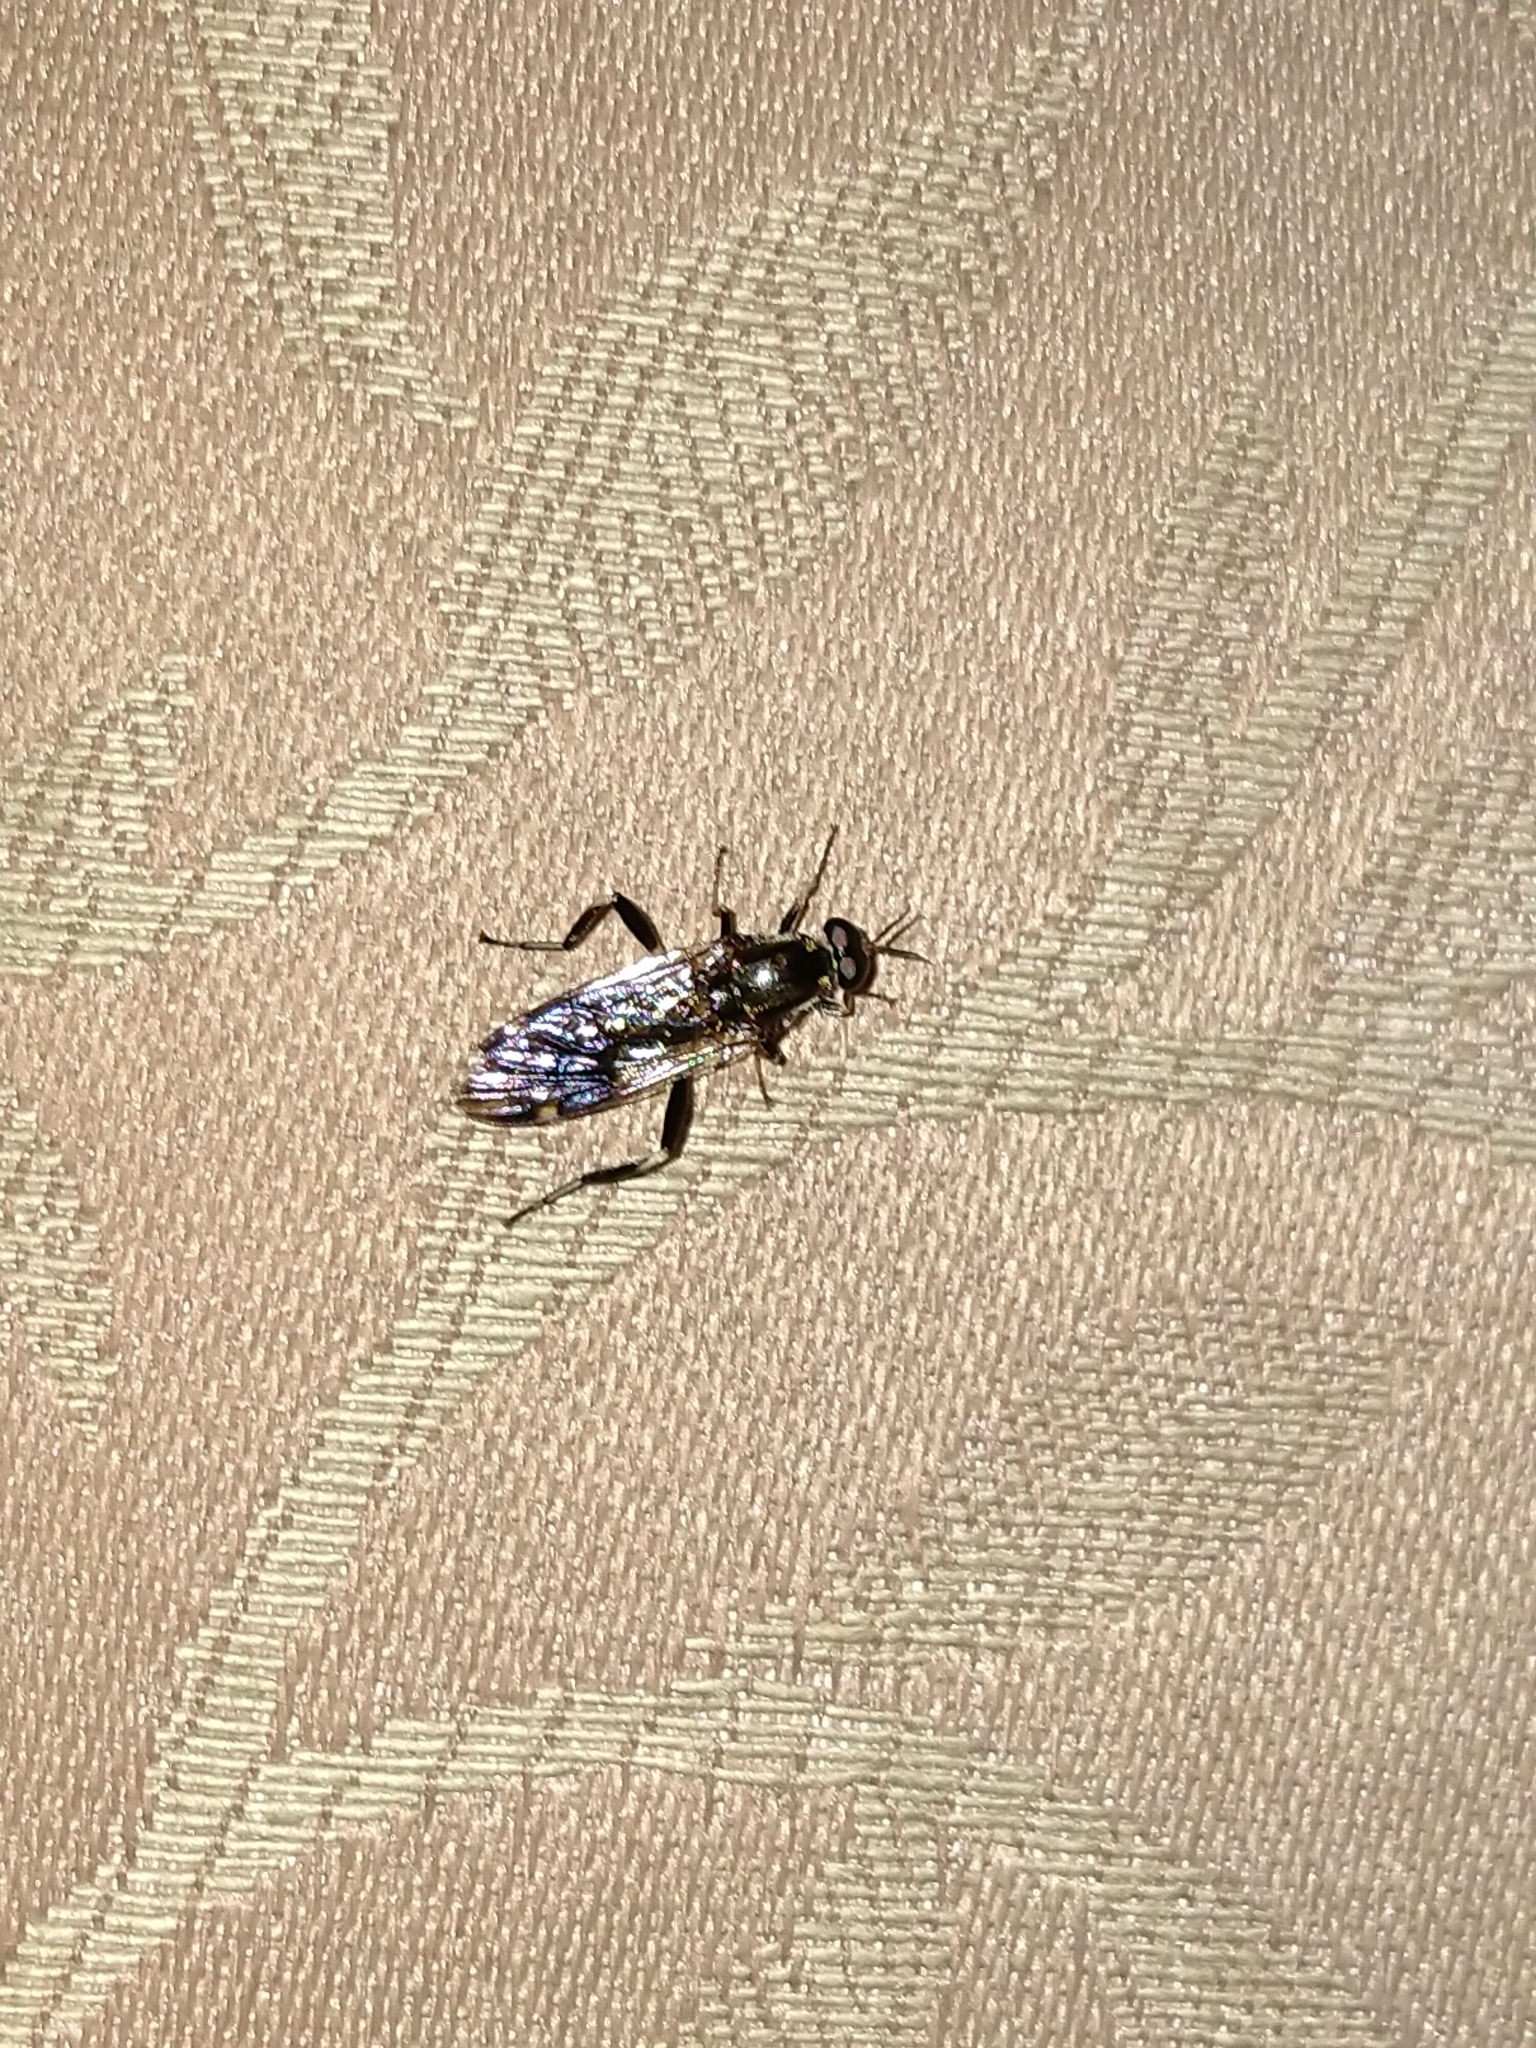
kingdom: Animalia
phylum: Arthropoda
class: Insecta
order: Diptera
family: Stratiomyidae
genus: Exaireta
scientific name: Exaireta spinigera
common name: Blue soldier fly
